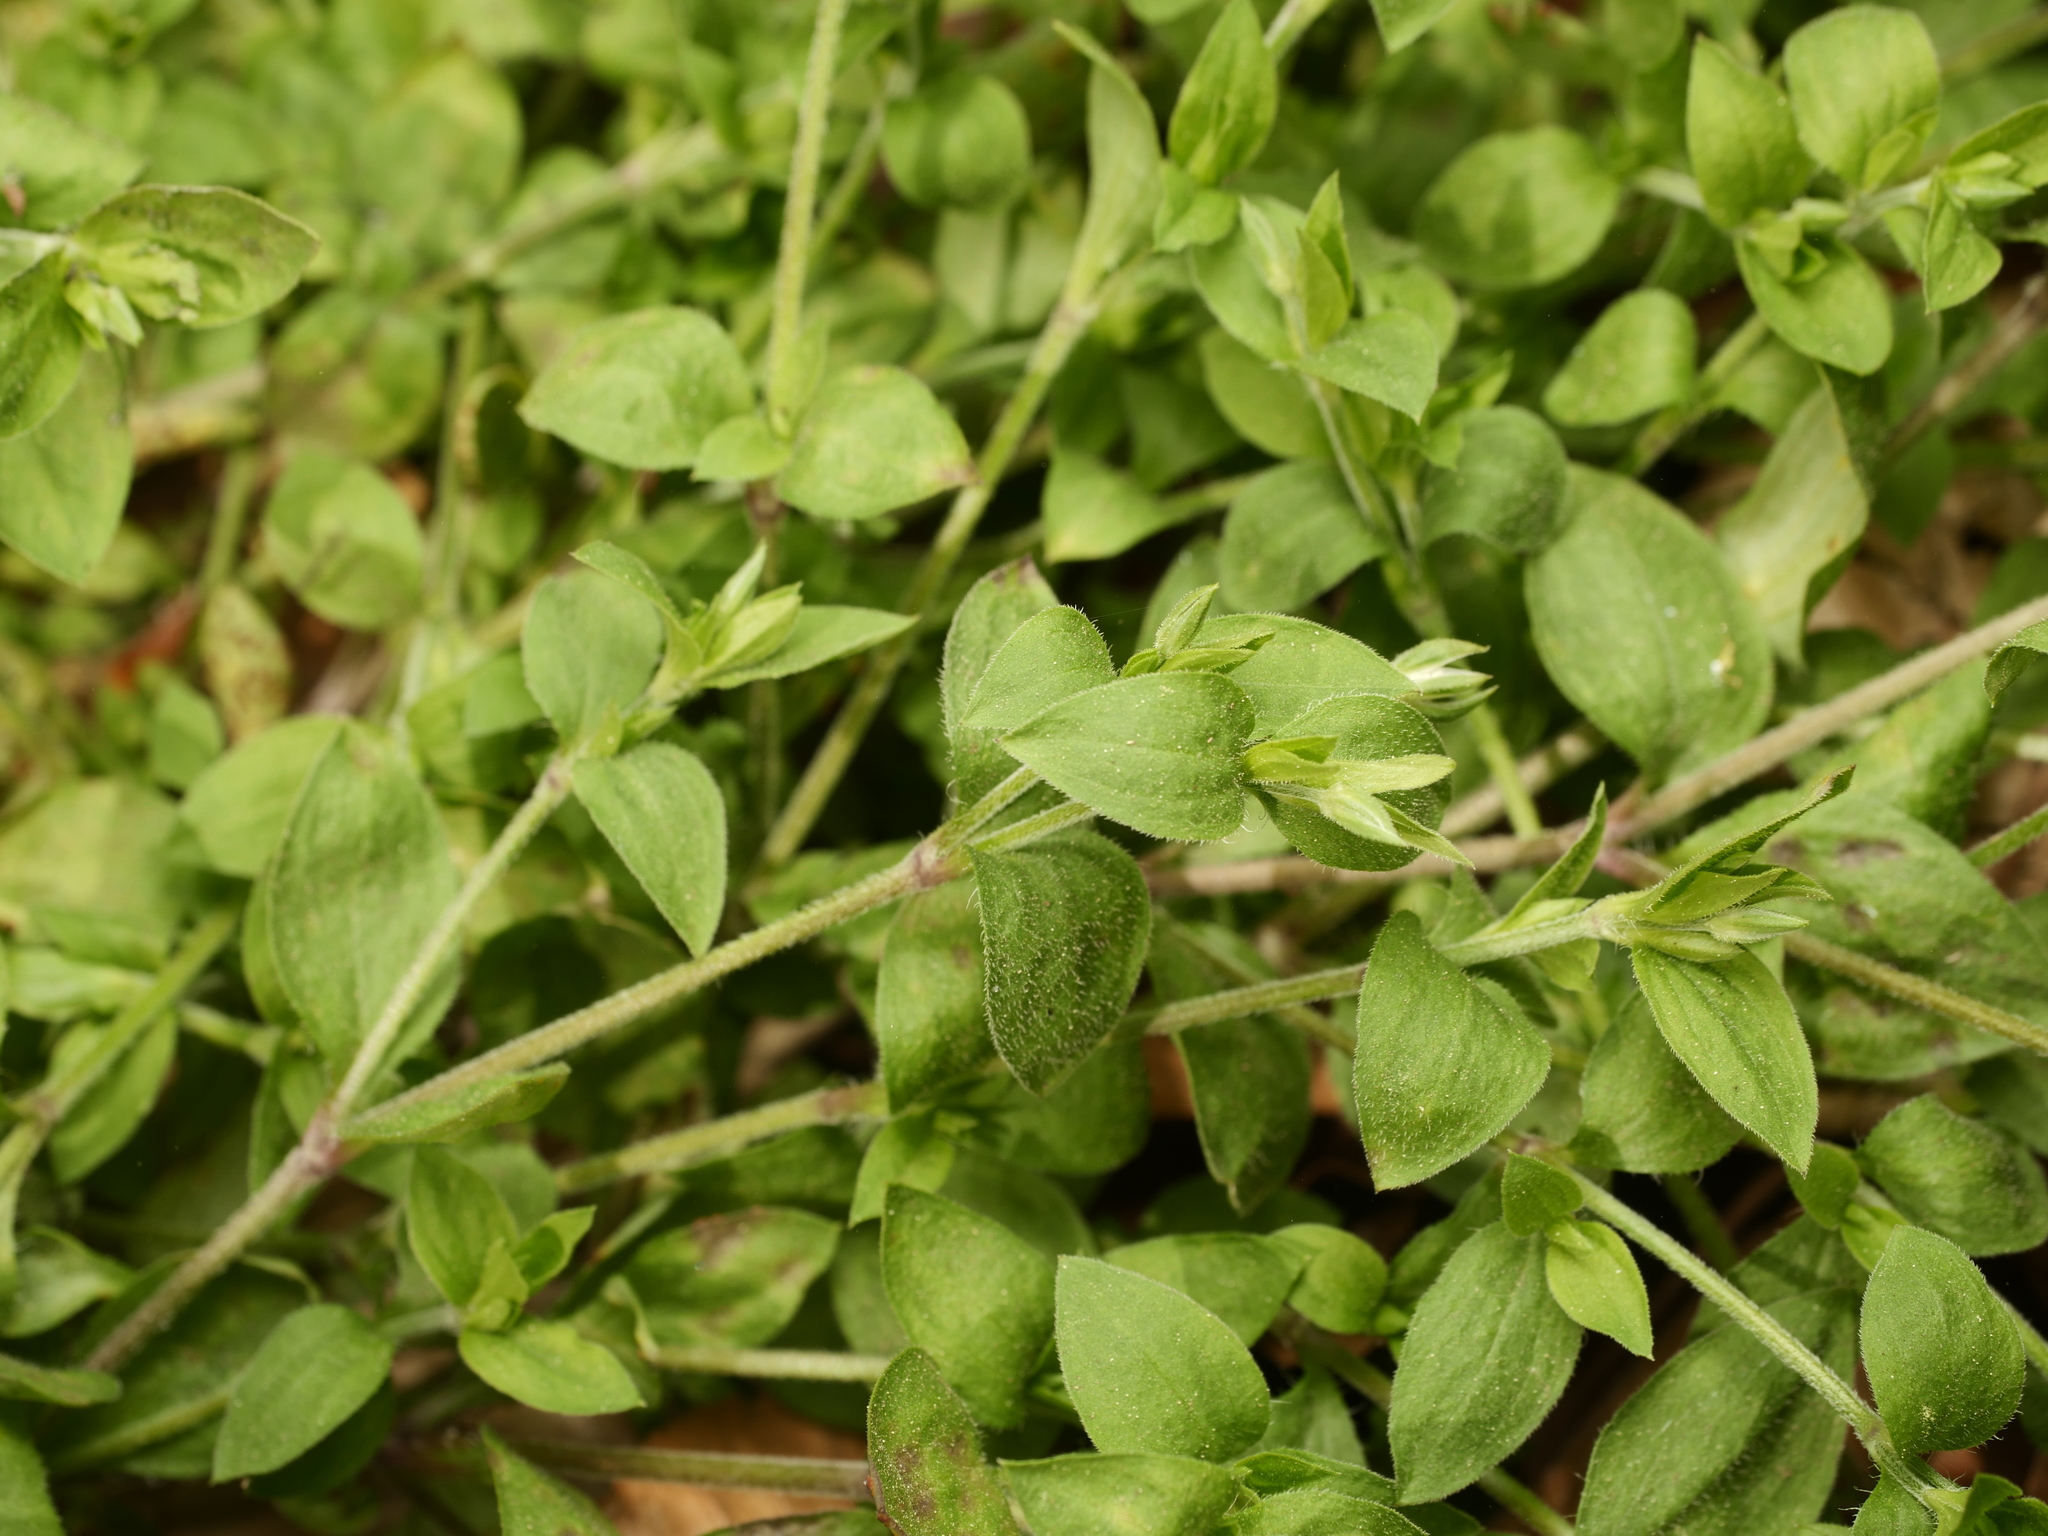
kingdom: Plantae
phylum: Tracheophyta
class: Magnoliopsida
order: Caryophyllales
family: Caryophyllaceae
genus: Moehringia
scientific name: Moehringia trinervia
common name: Three-nerved sandwort
